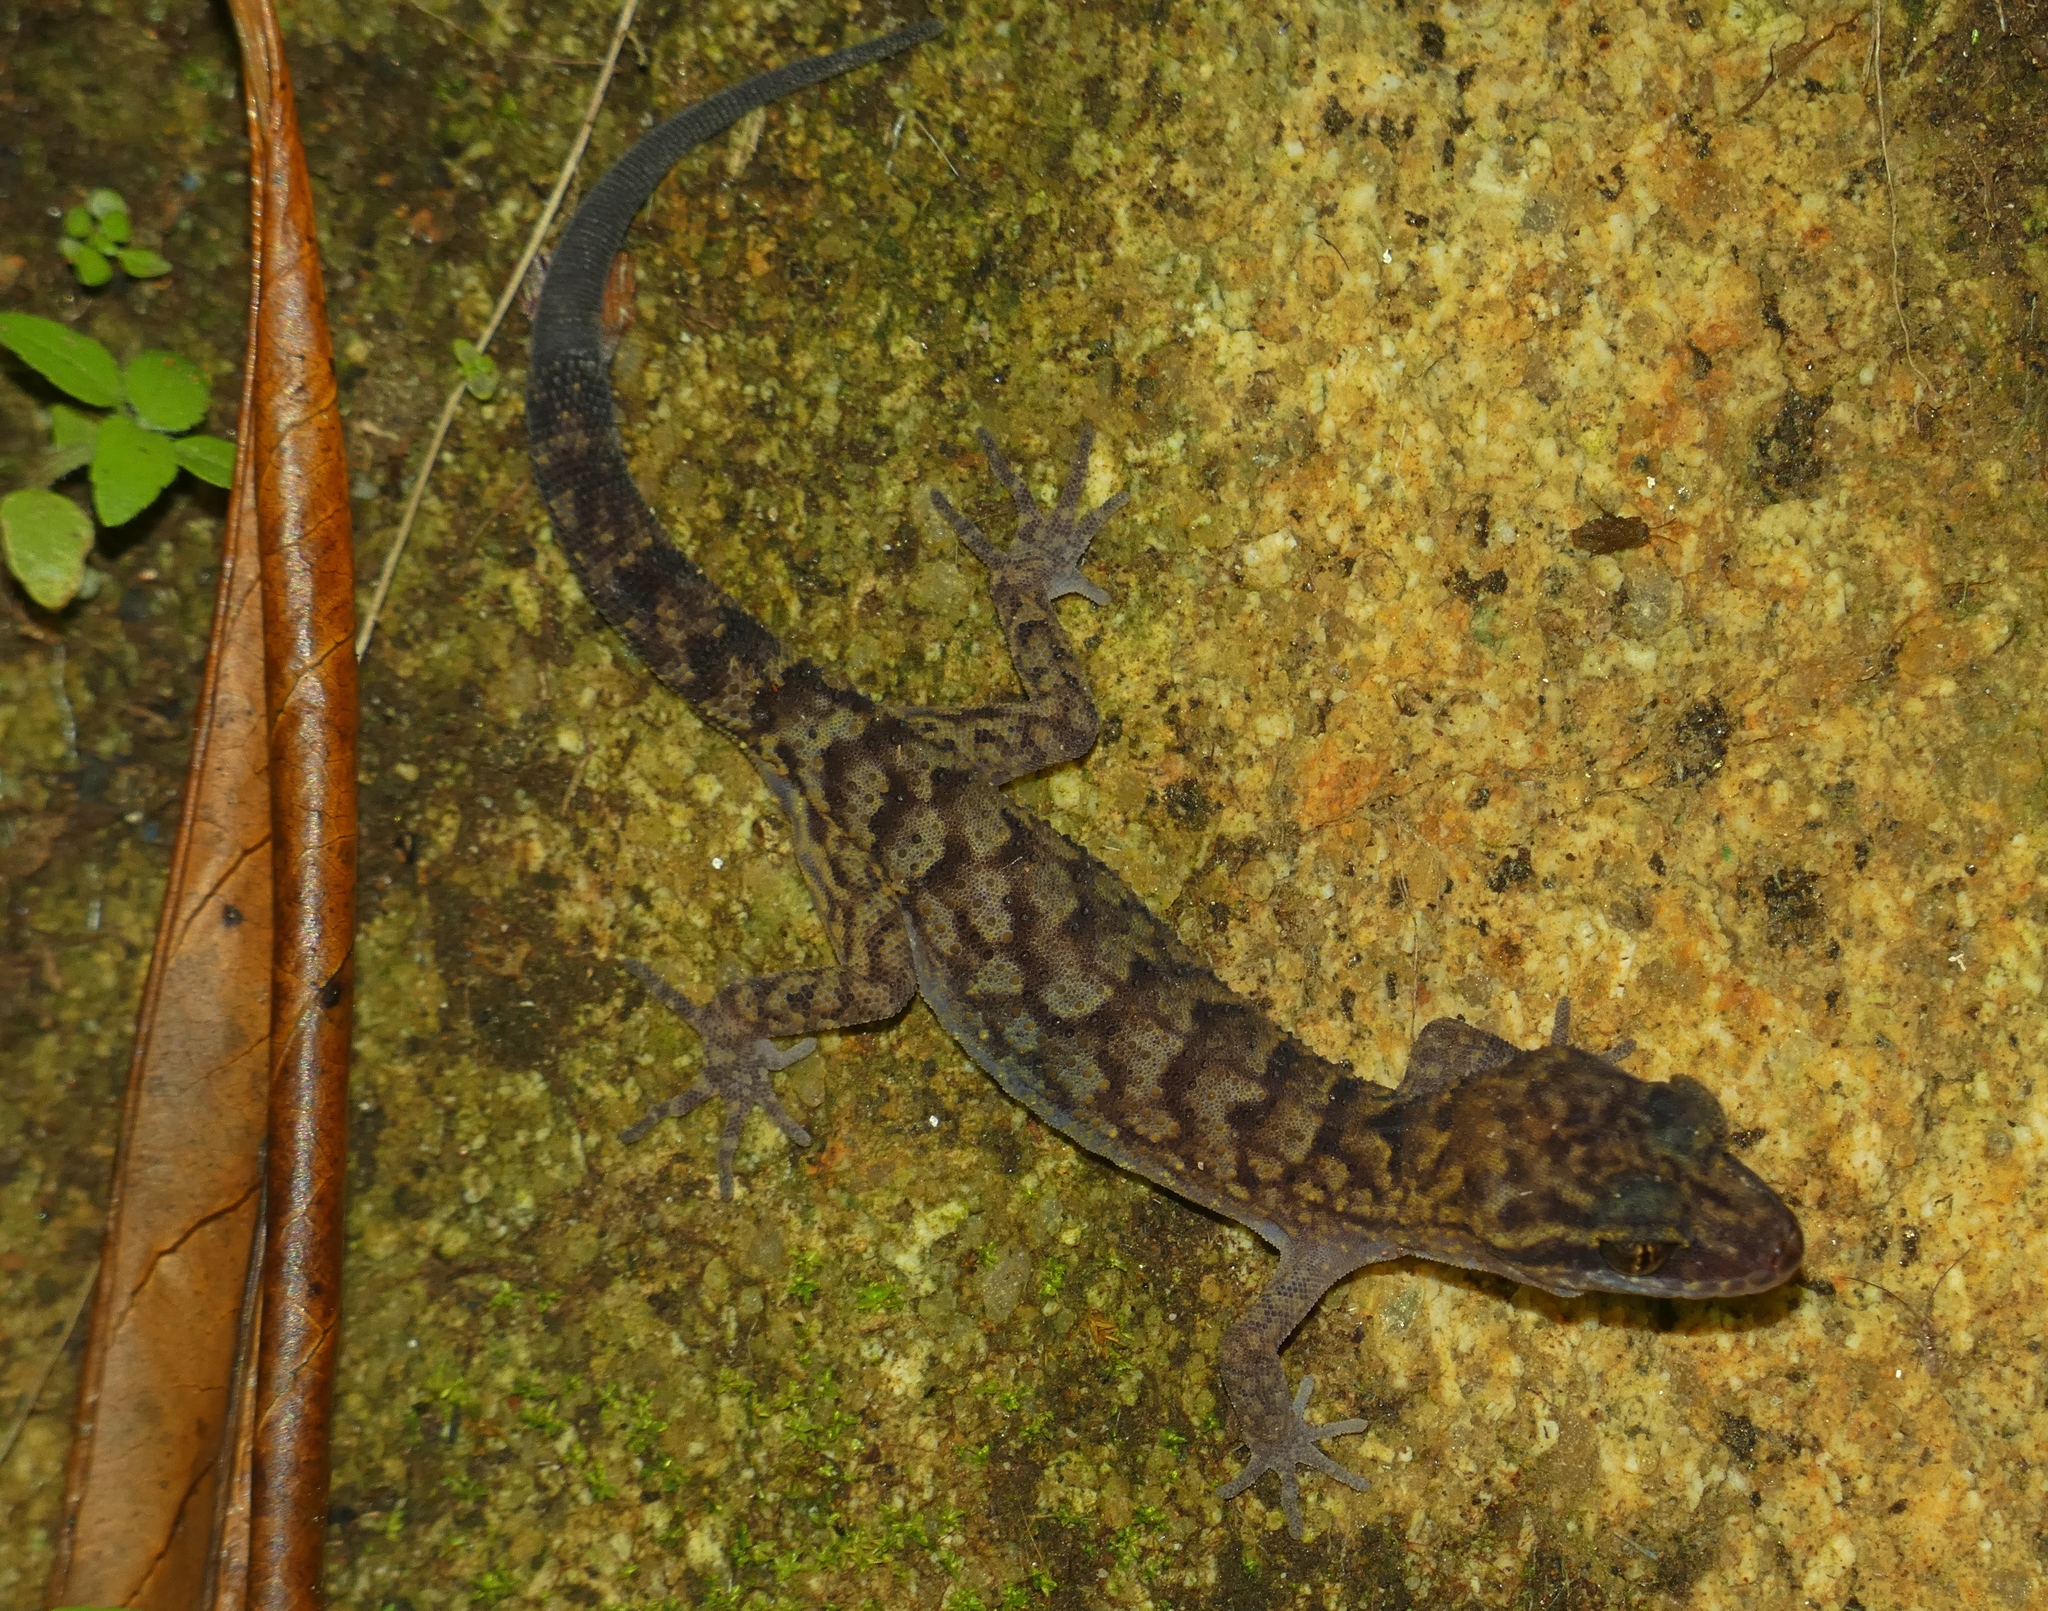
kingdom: Animalia
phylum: Chordata
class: Squamata
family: Gekkonidae
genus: Nactus
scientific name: Nactus cheverti
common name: Chevert's gecko
